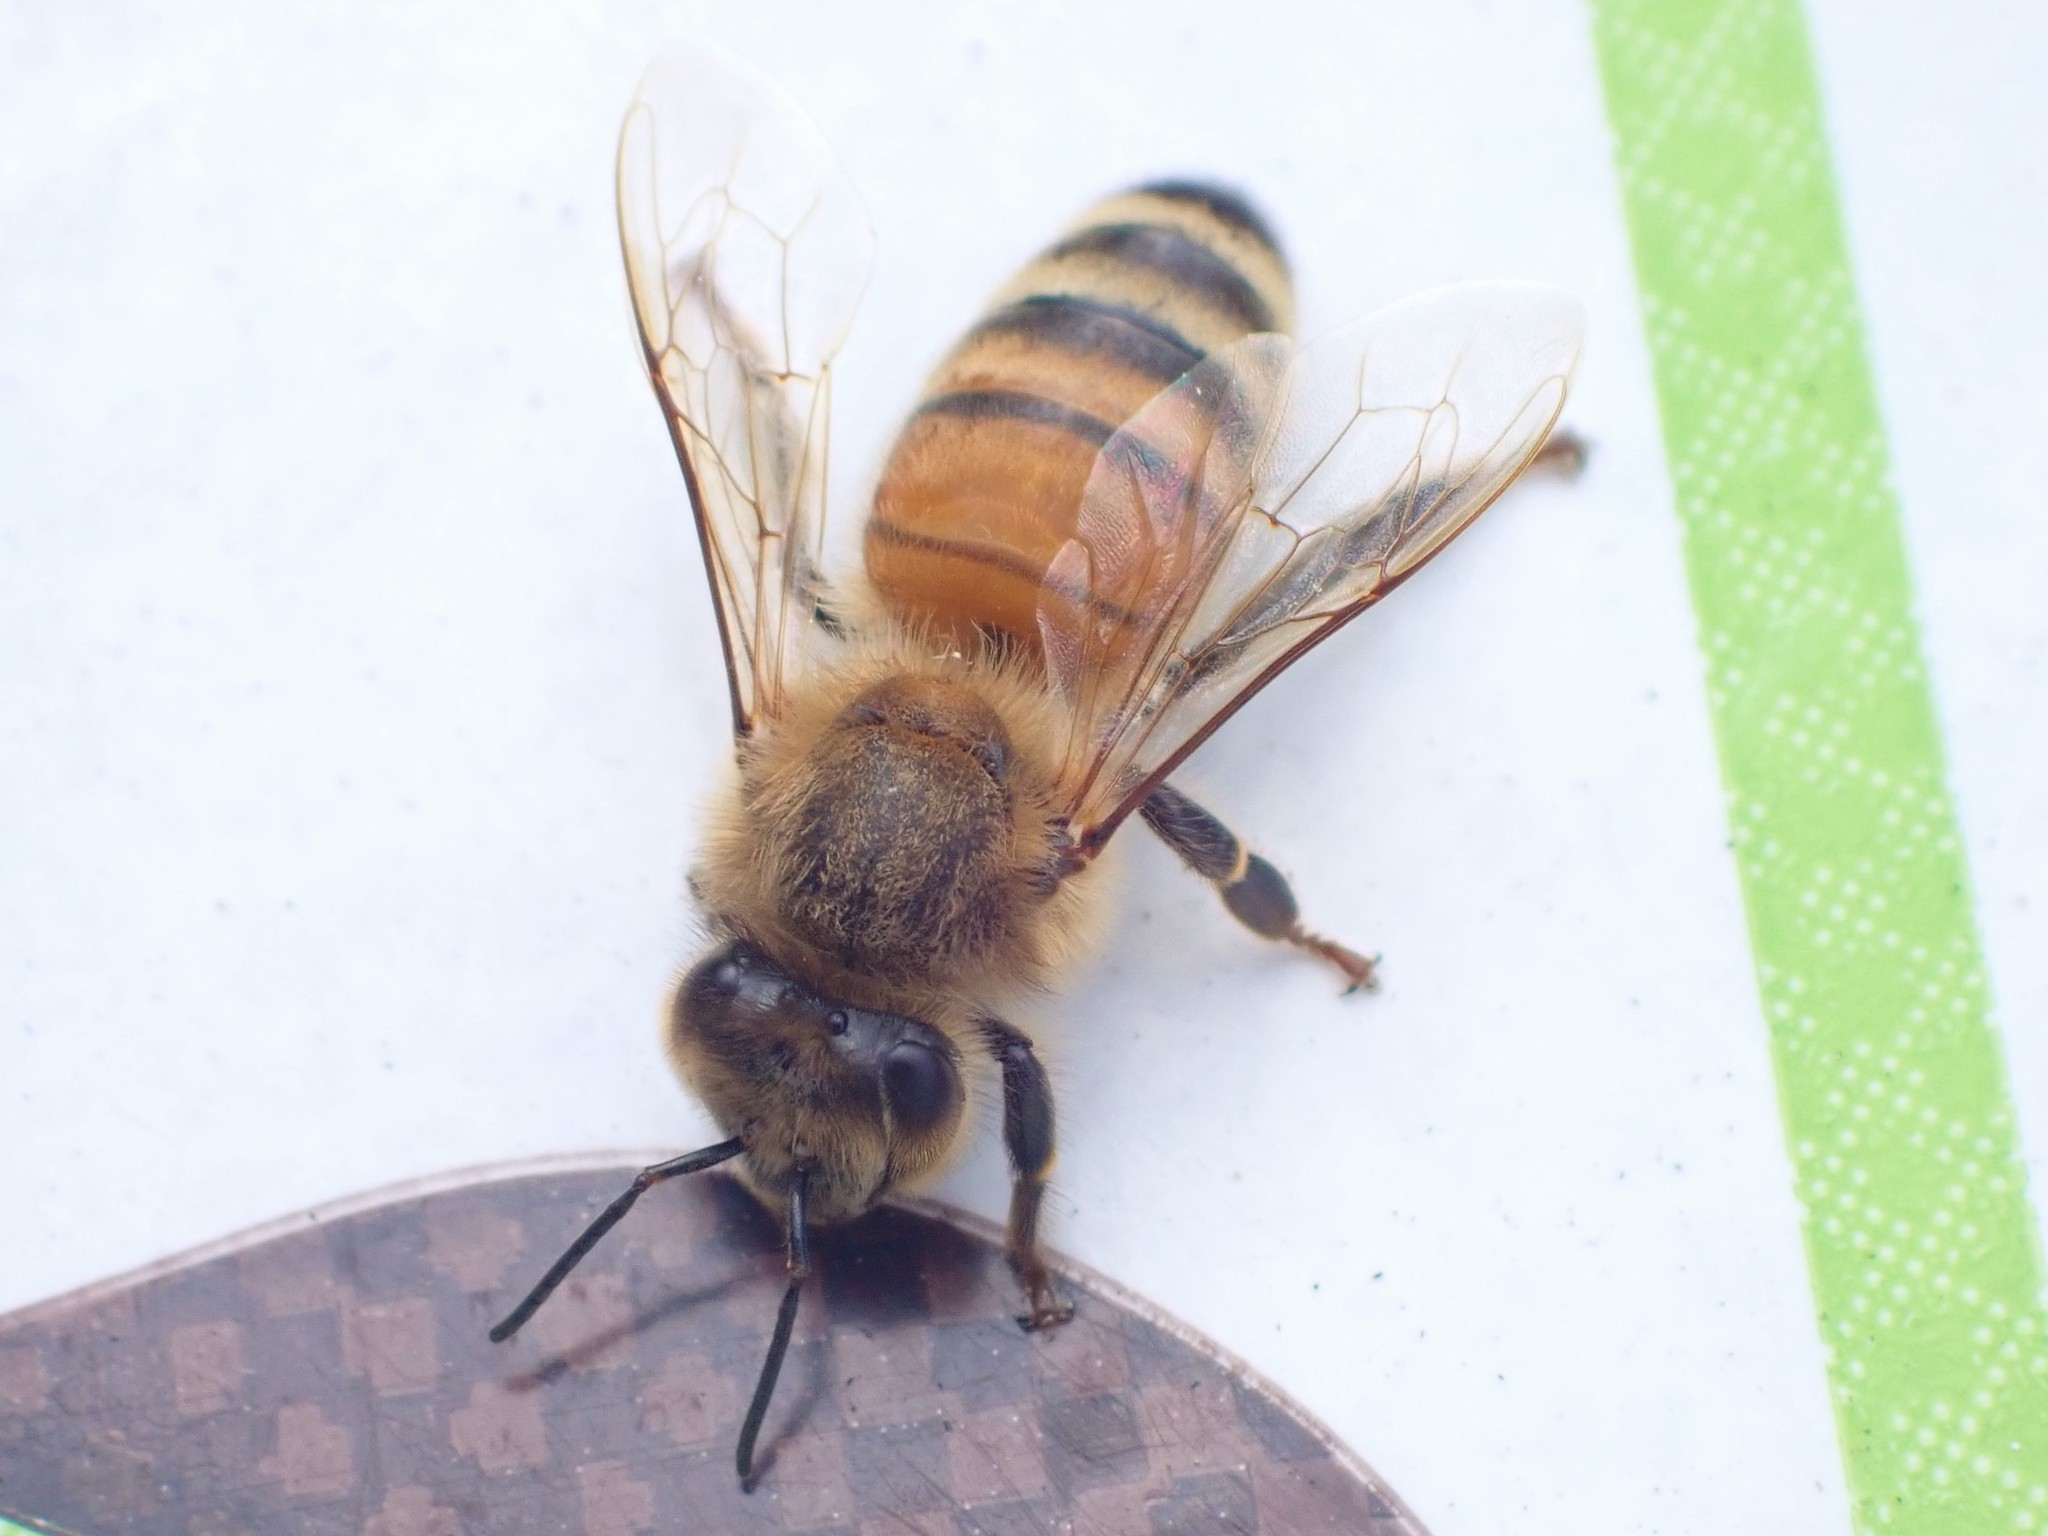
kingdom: Animalia
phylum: Arthropoda
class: Insecta
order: Hymenoptera
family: Apidae
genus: Apis
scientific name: Apis mellifera
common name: Honey bee
